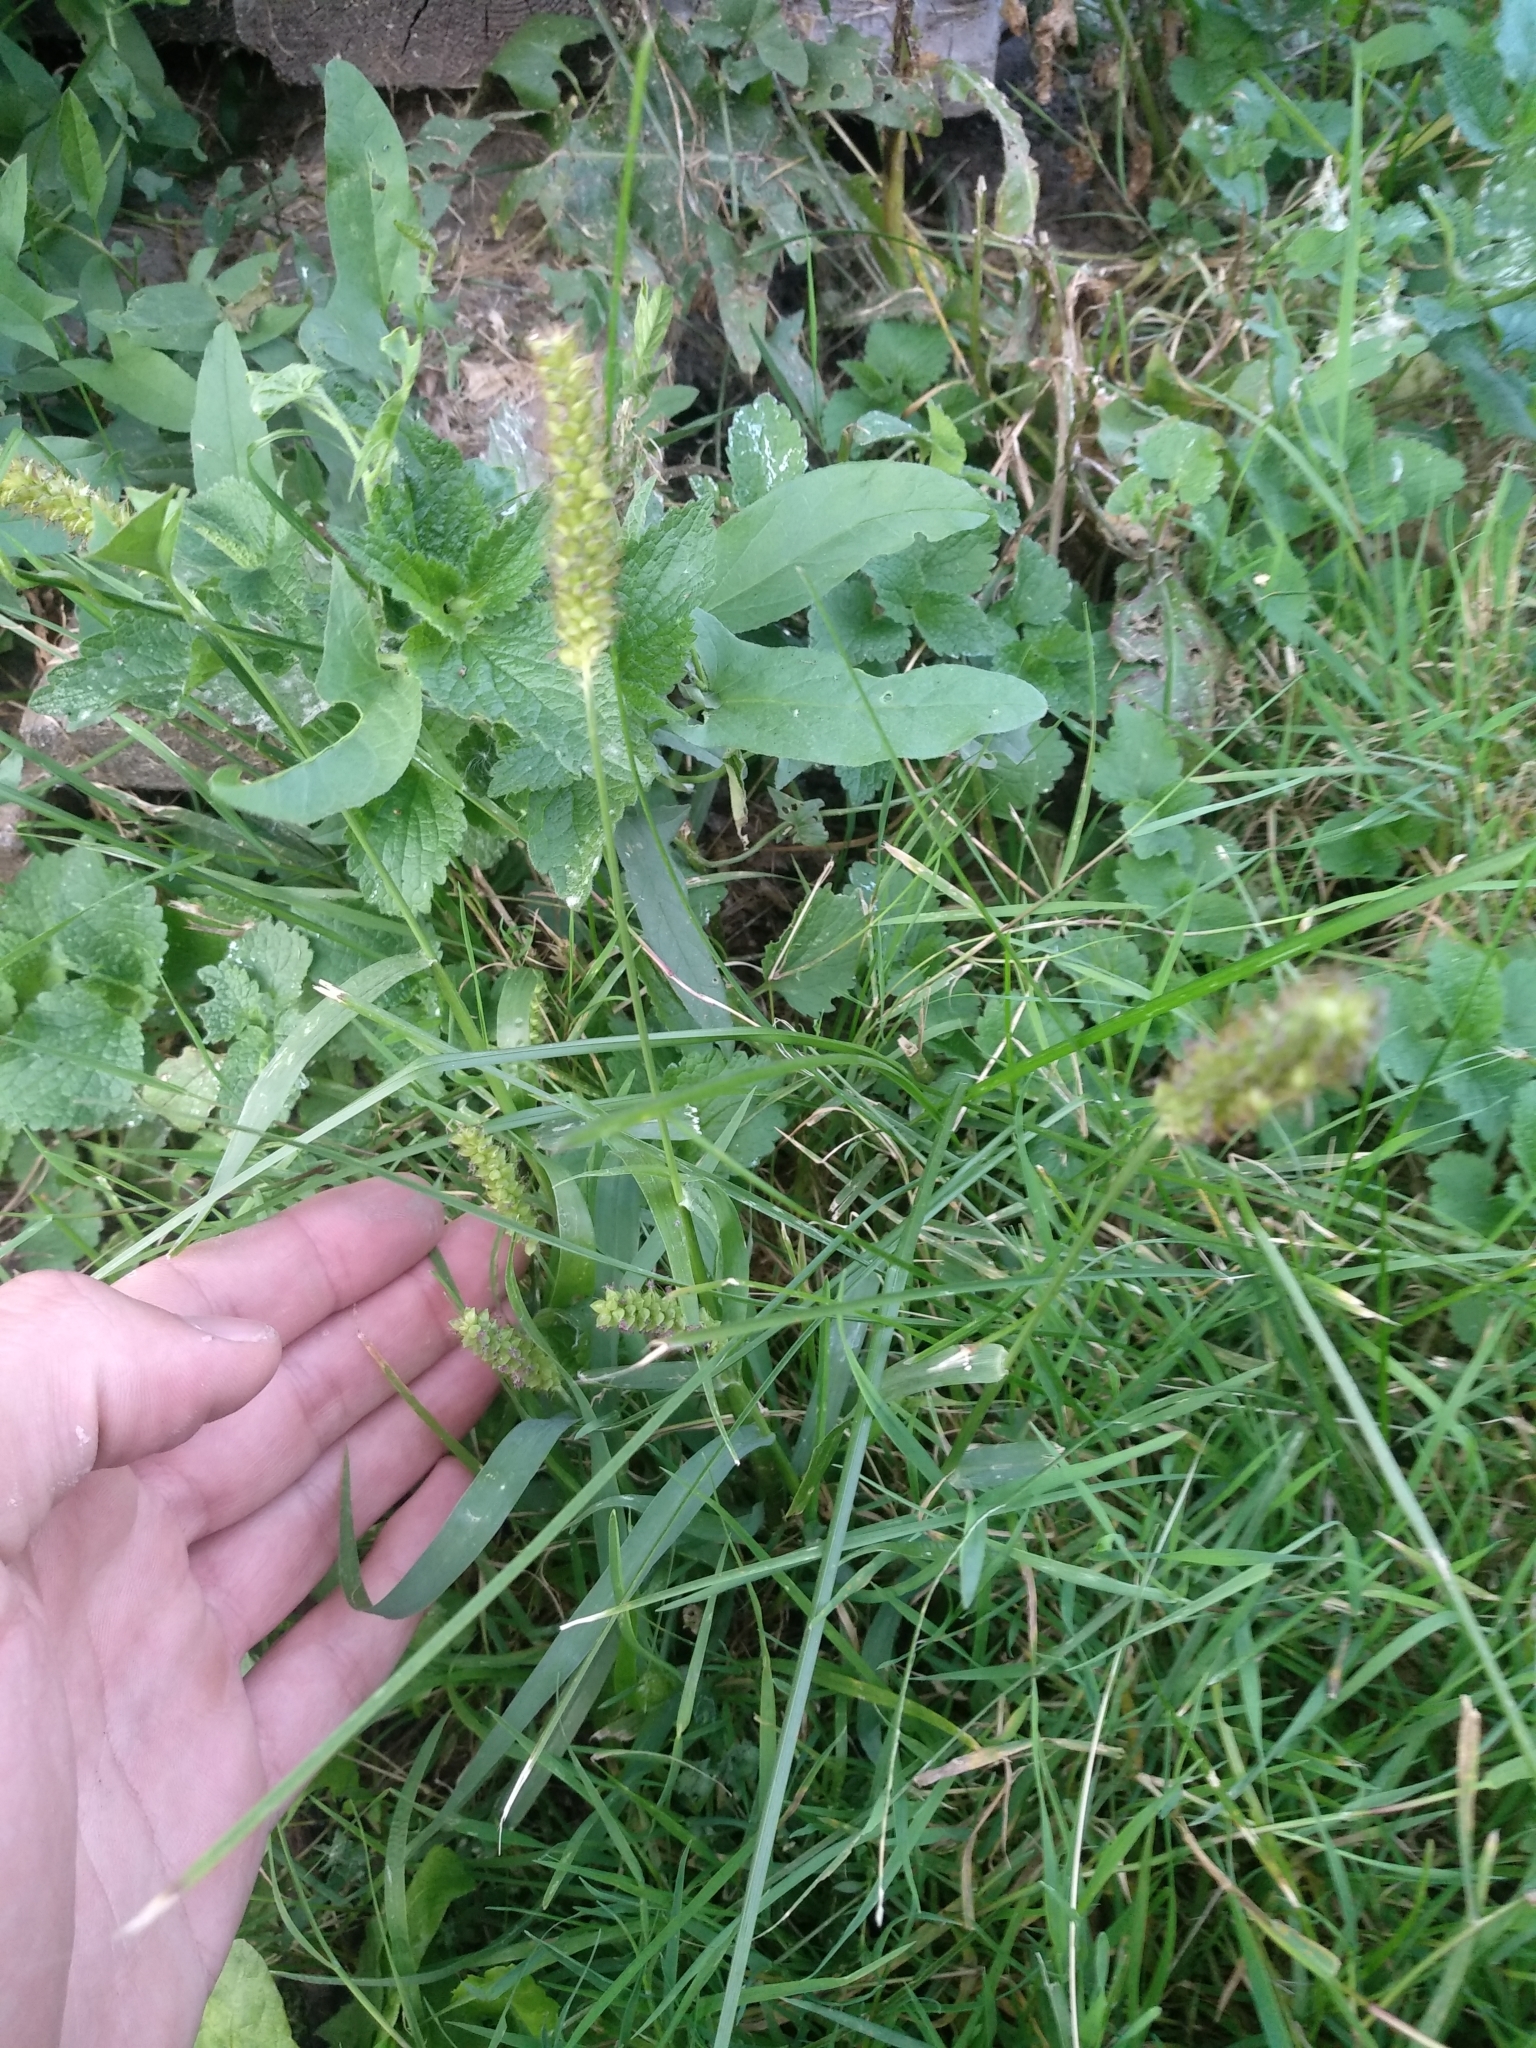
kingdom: Plantae
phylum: Tracheophyta
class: Liliopsida
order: Poales
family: Poaceae
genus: Setaria
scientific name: Setaria pumila
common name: Yellow bristle-grass
